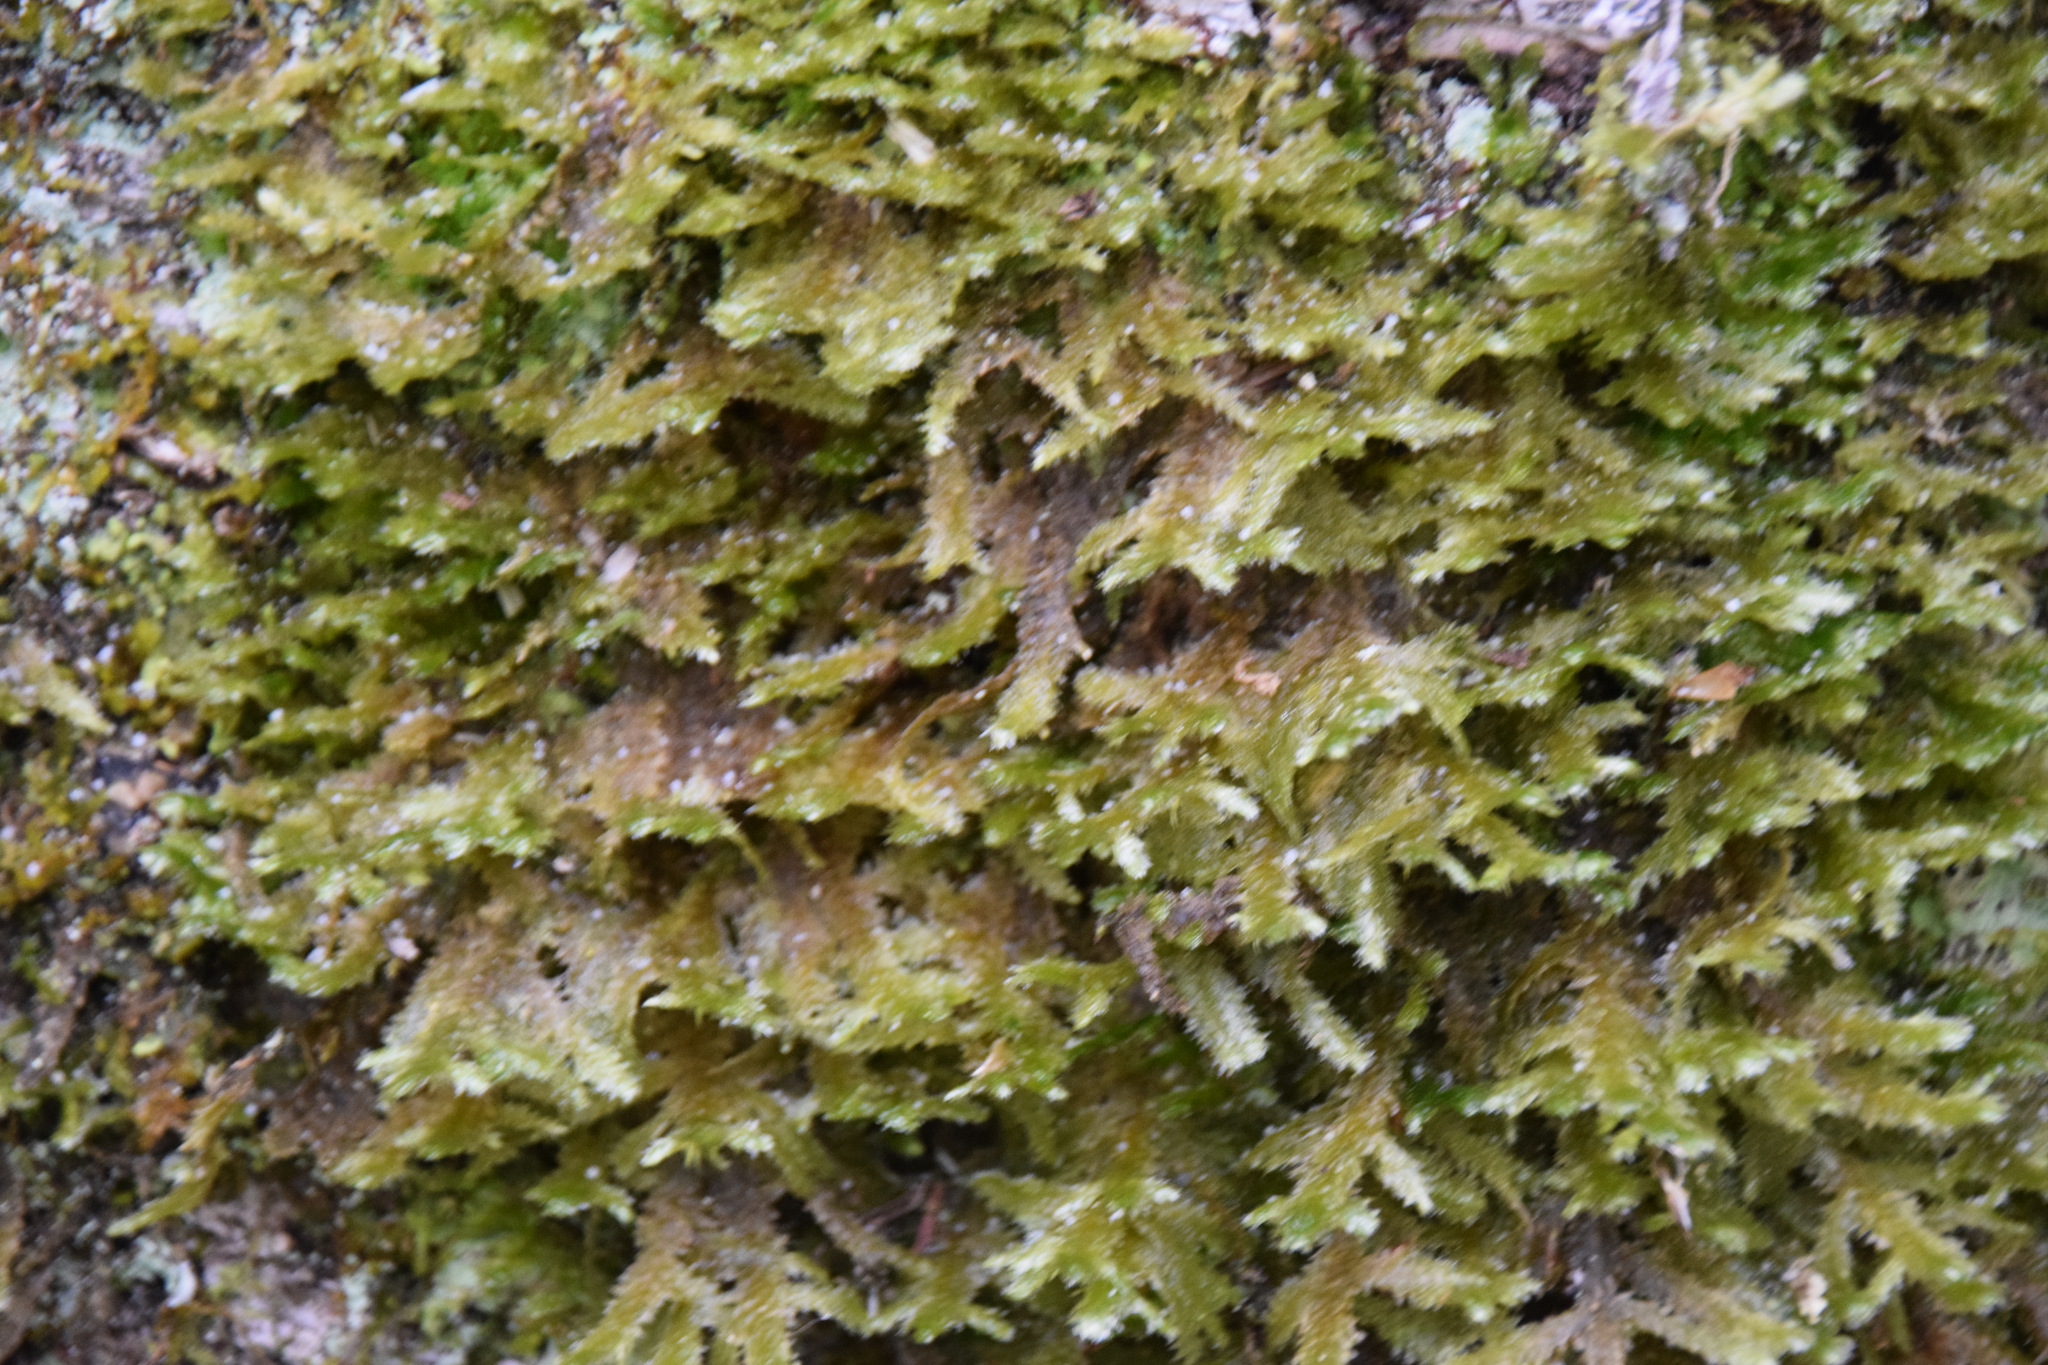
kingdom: Plantae
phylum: Bryophyta
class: Bryopsida
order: Hypnales
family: Neckeraceae
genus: Neckera
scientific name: Neckera pennata
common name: Feathery neckera
